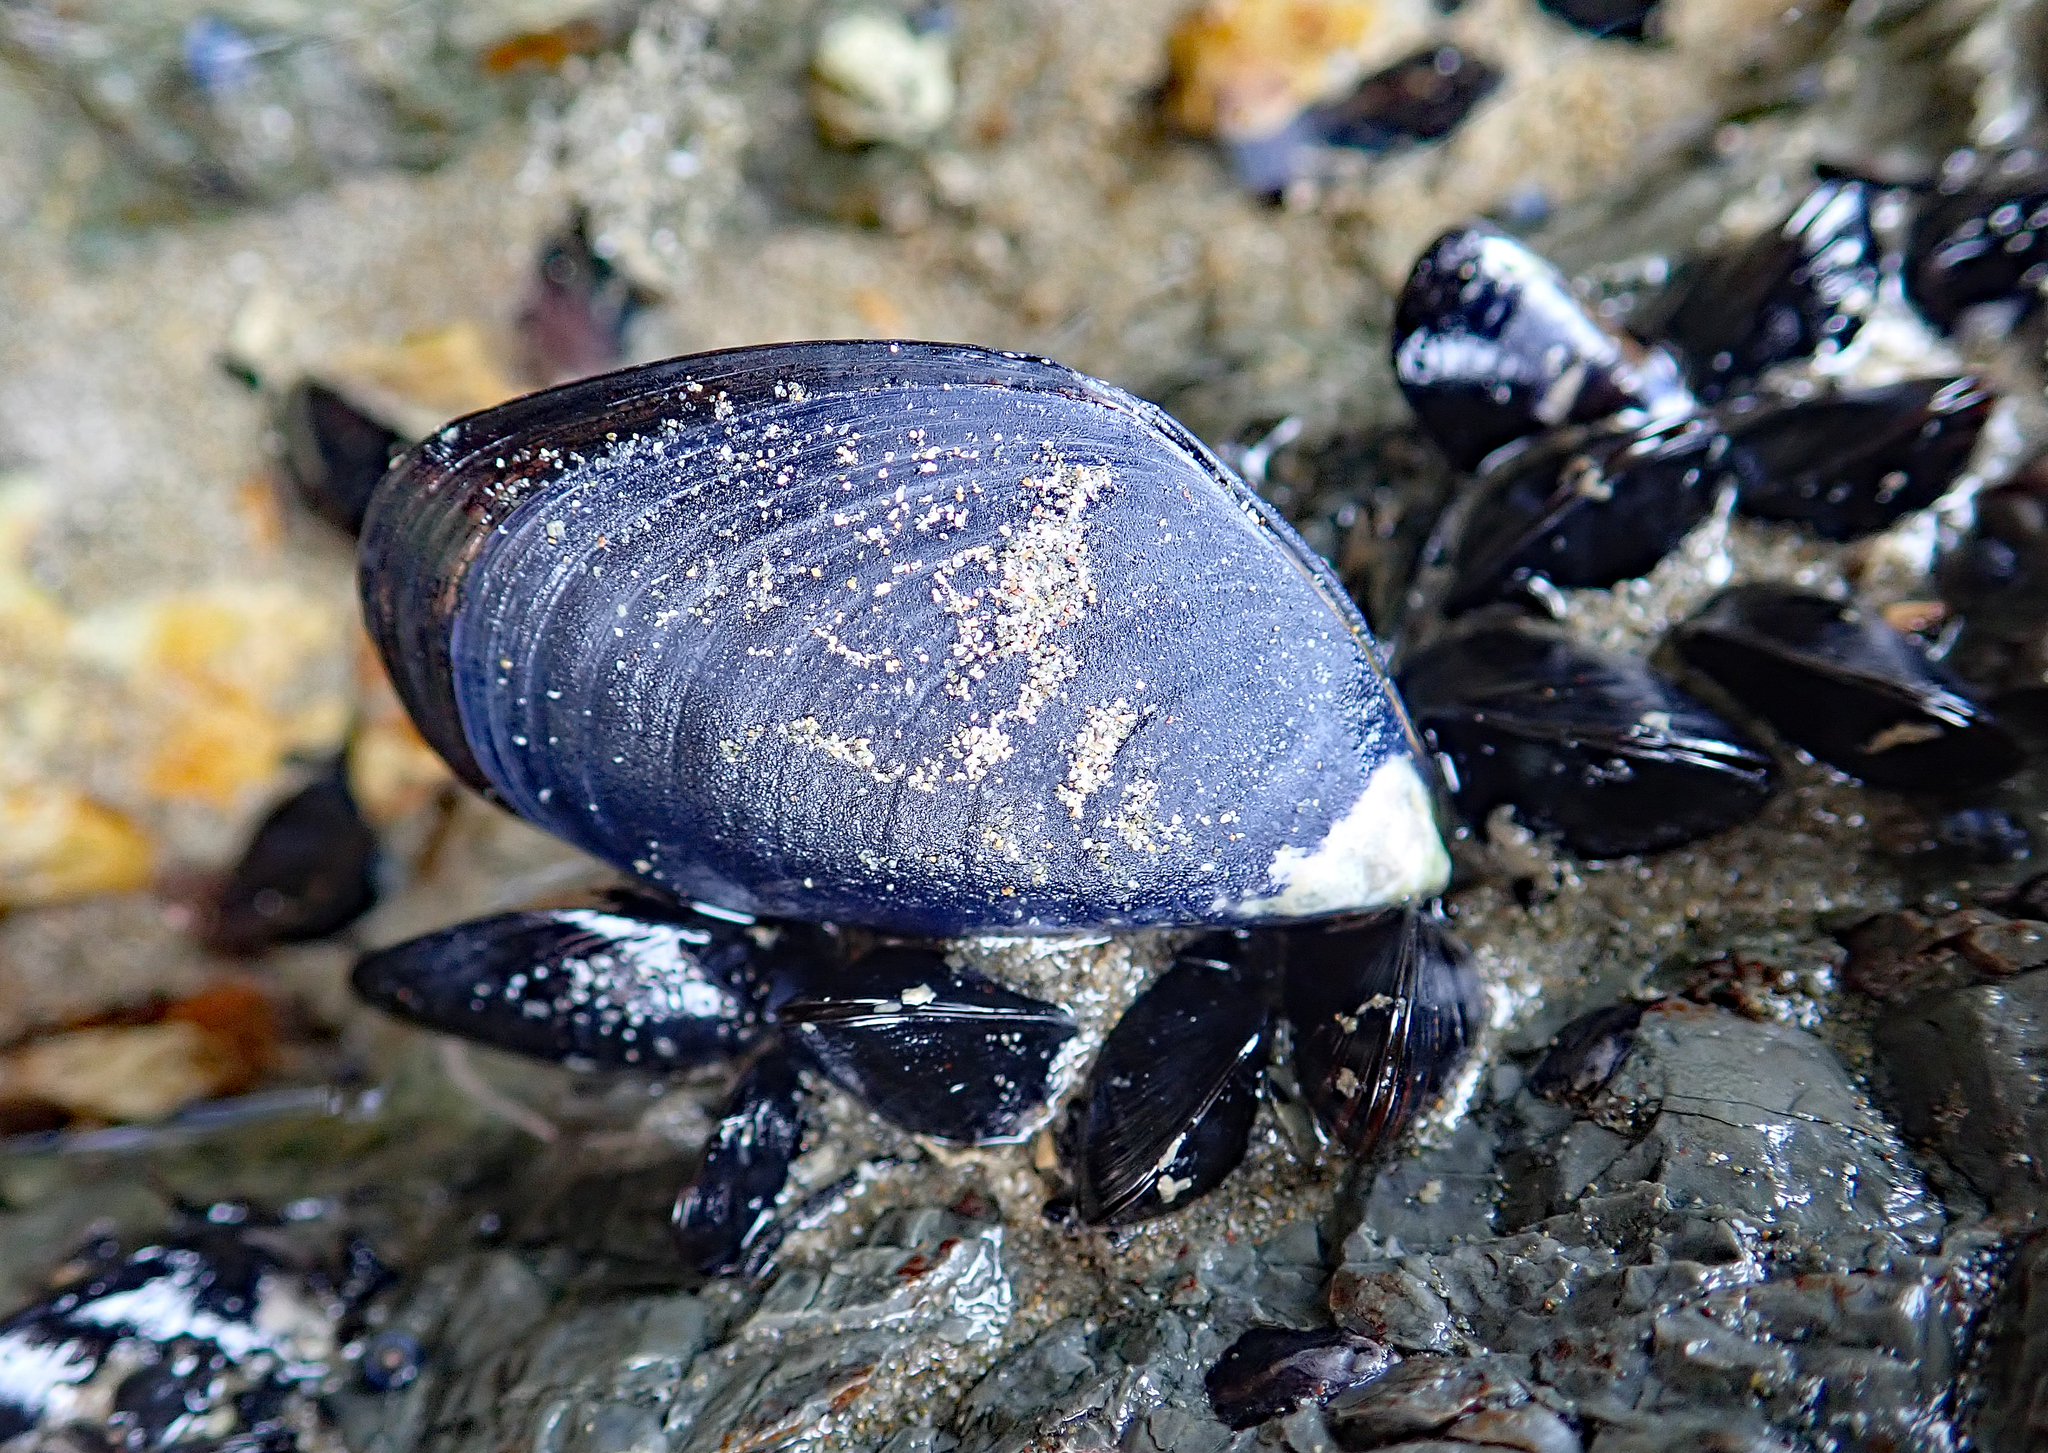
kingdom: Animalia
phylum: Mollusca
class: Bivalvia
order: Mytilida
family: Mytilidae
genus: Xenostrobus
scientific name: Xenostrobus neozelanicus
